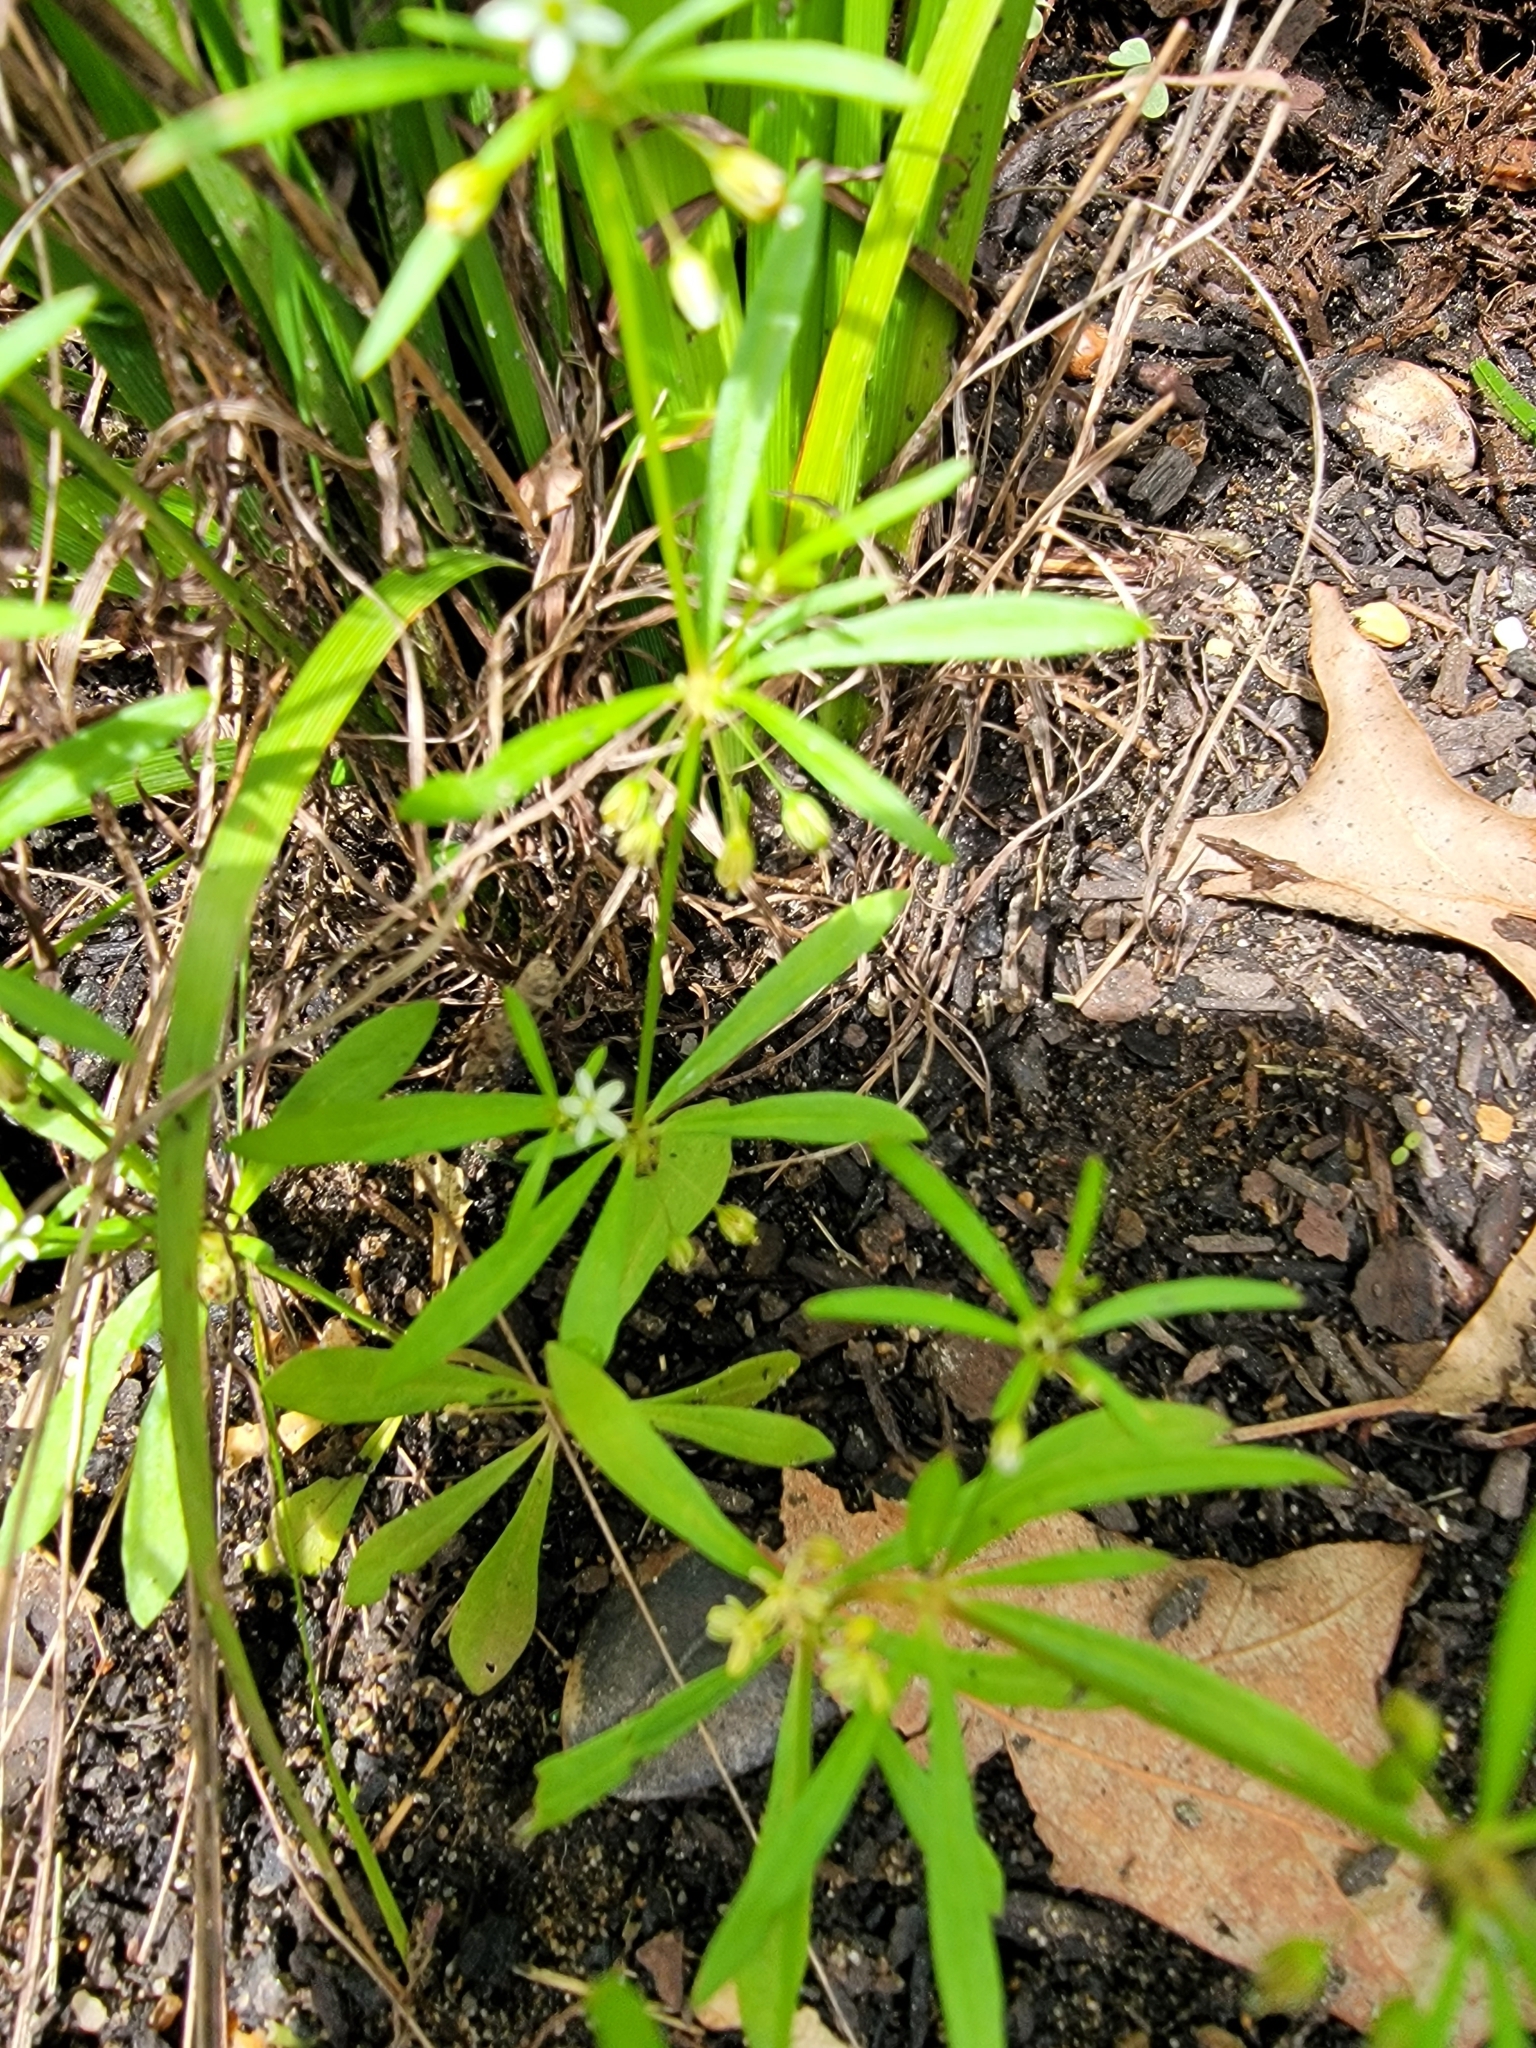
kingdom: Plantae
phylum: Tracheophyta
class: Magnoliopsida
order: Caryophyllales
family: Molluginaceae
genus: Mollugo
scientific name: Mollugo verticillata
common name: Green carpetweed
